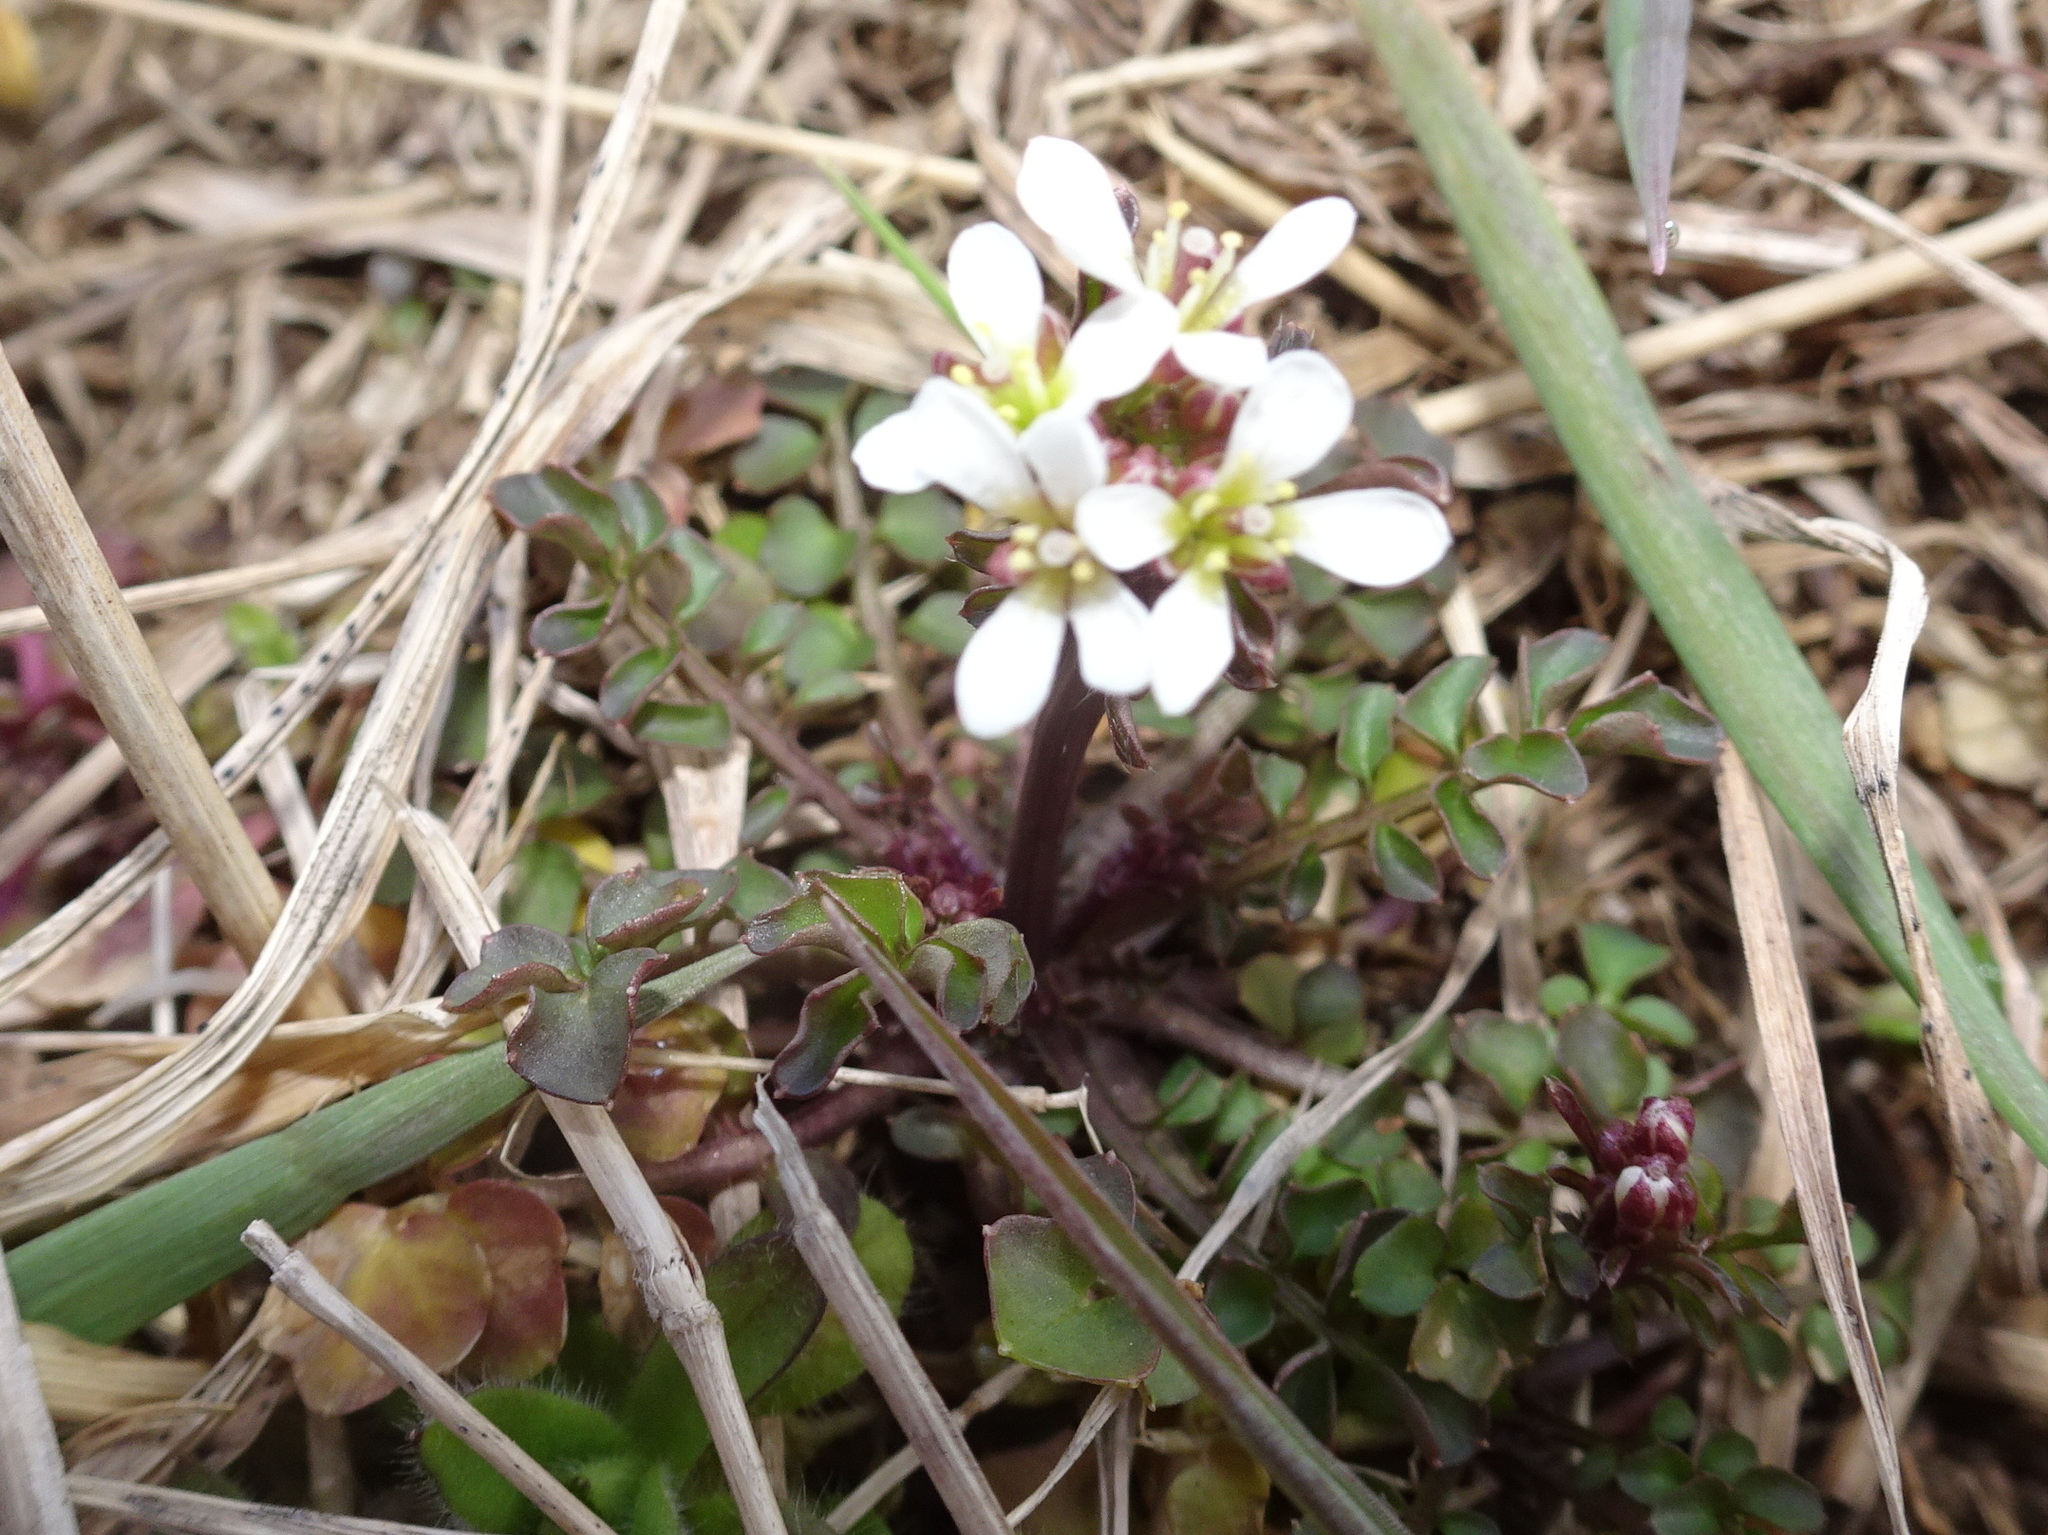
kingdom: Plantae
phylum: Tracheophyta
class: Magnoliopsida
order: Brassicales
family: Brassicaceae
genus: Cardamine
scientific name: Cardamine hirsuta
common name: Hairy bittercress
